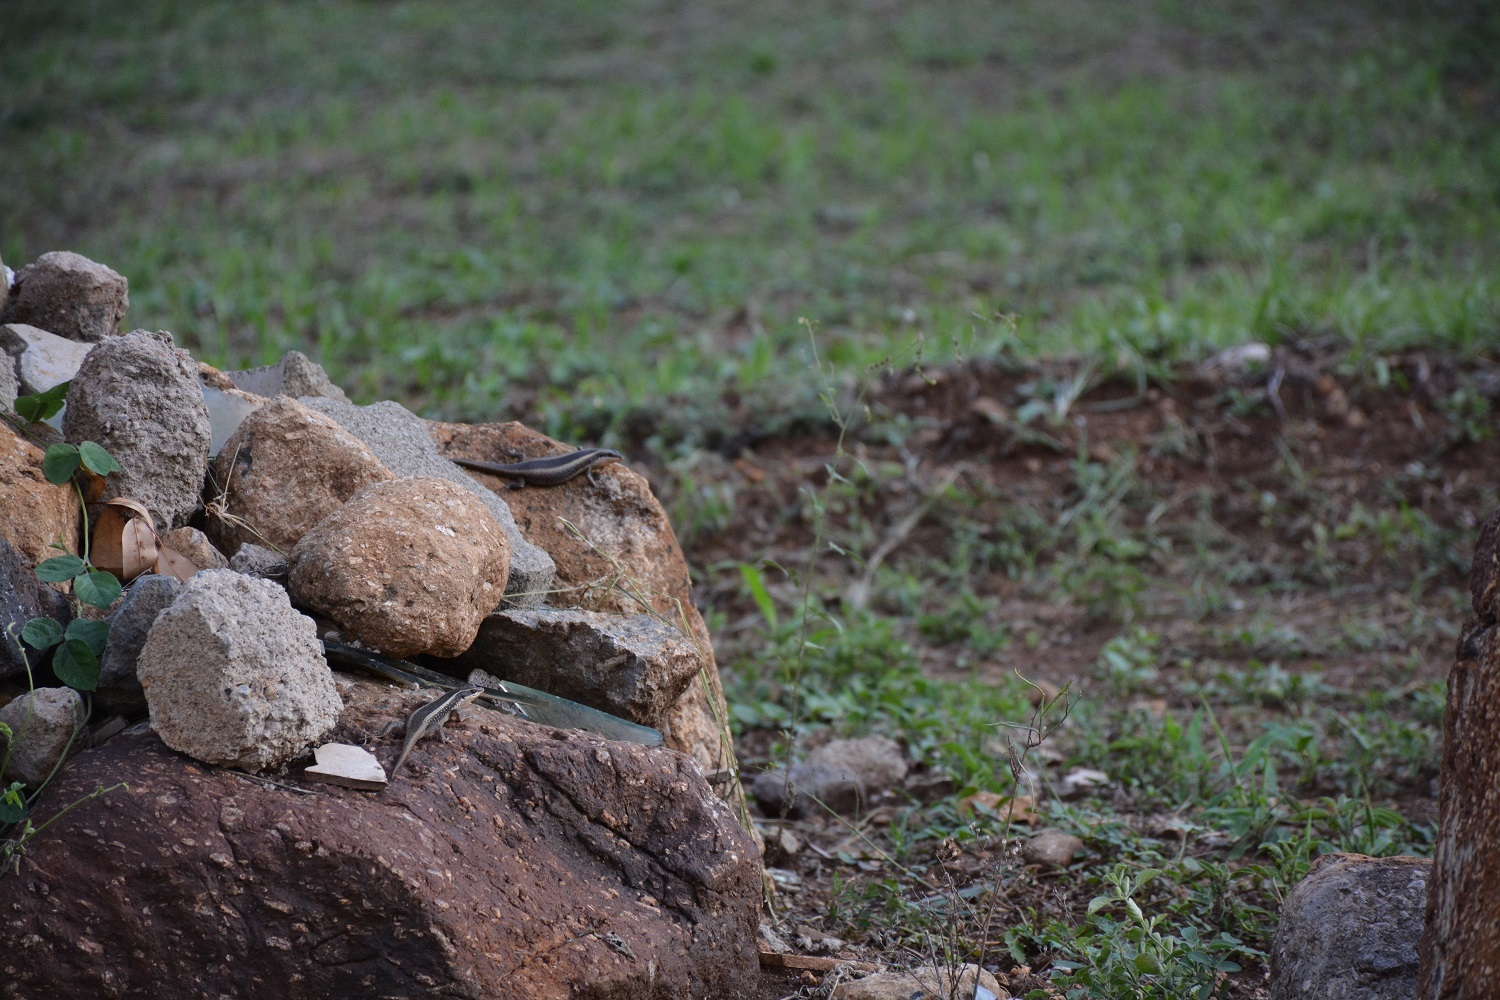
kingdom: Animalia
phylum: Chordata
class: Squamata
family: Scincidae
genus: Trachylepis
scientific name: Trachylepis striata
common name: African striped mabuya
